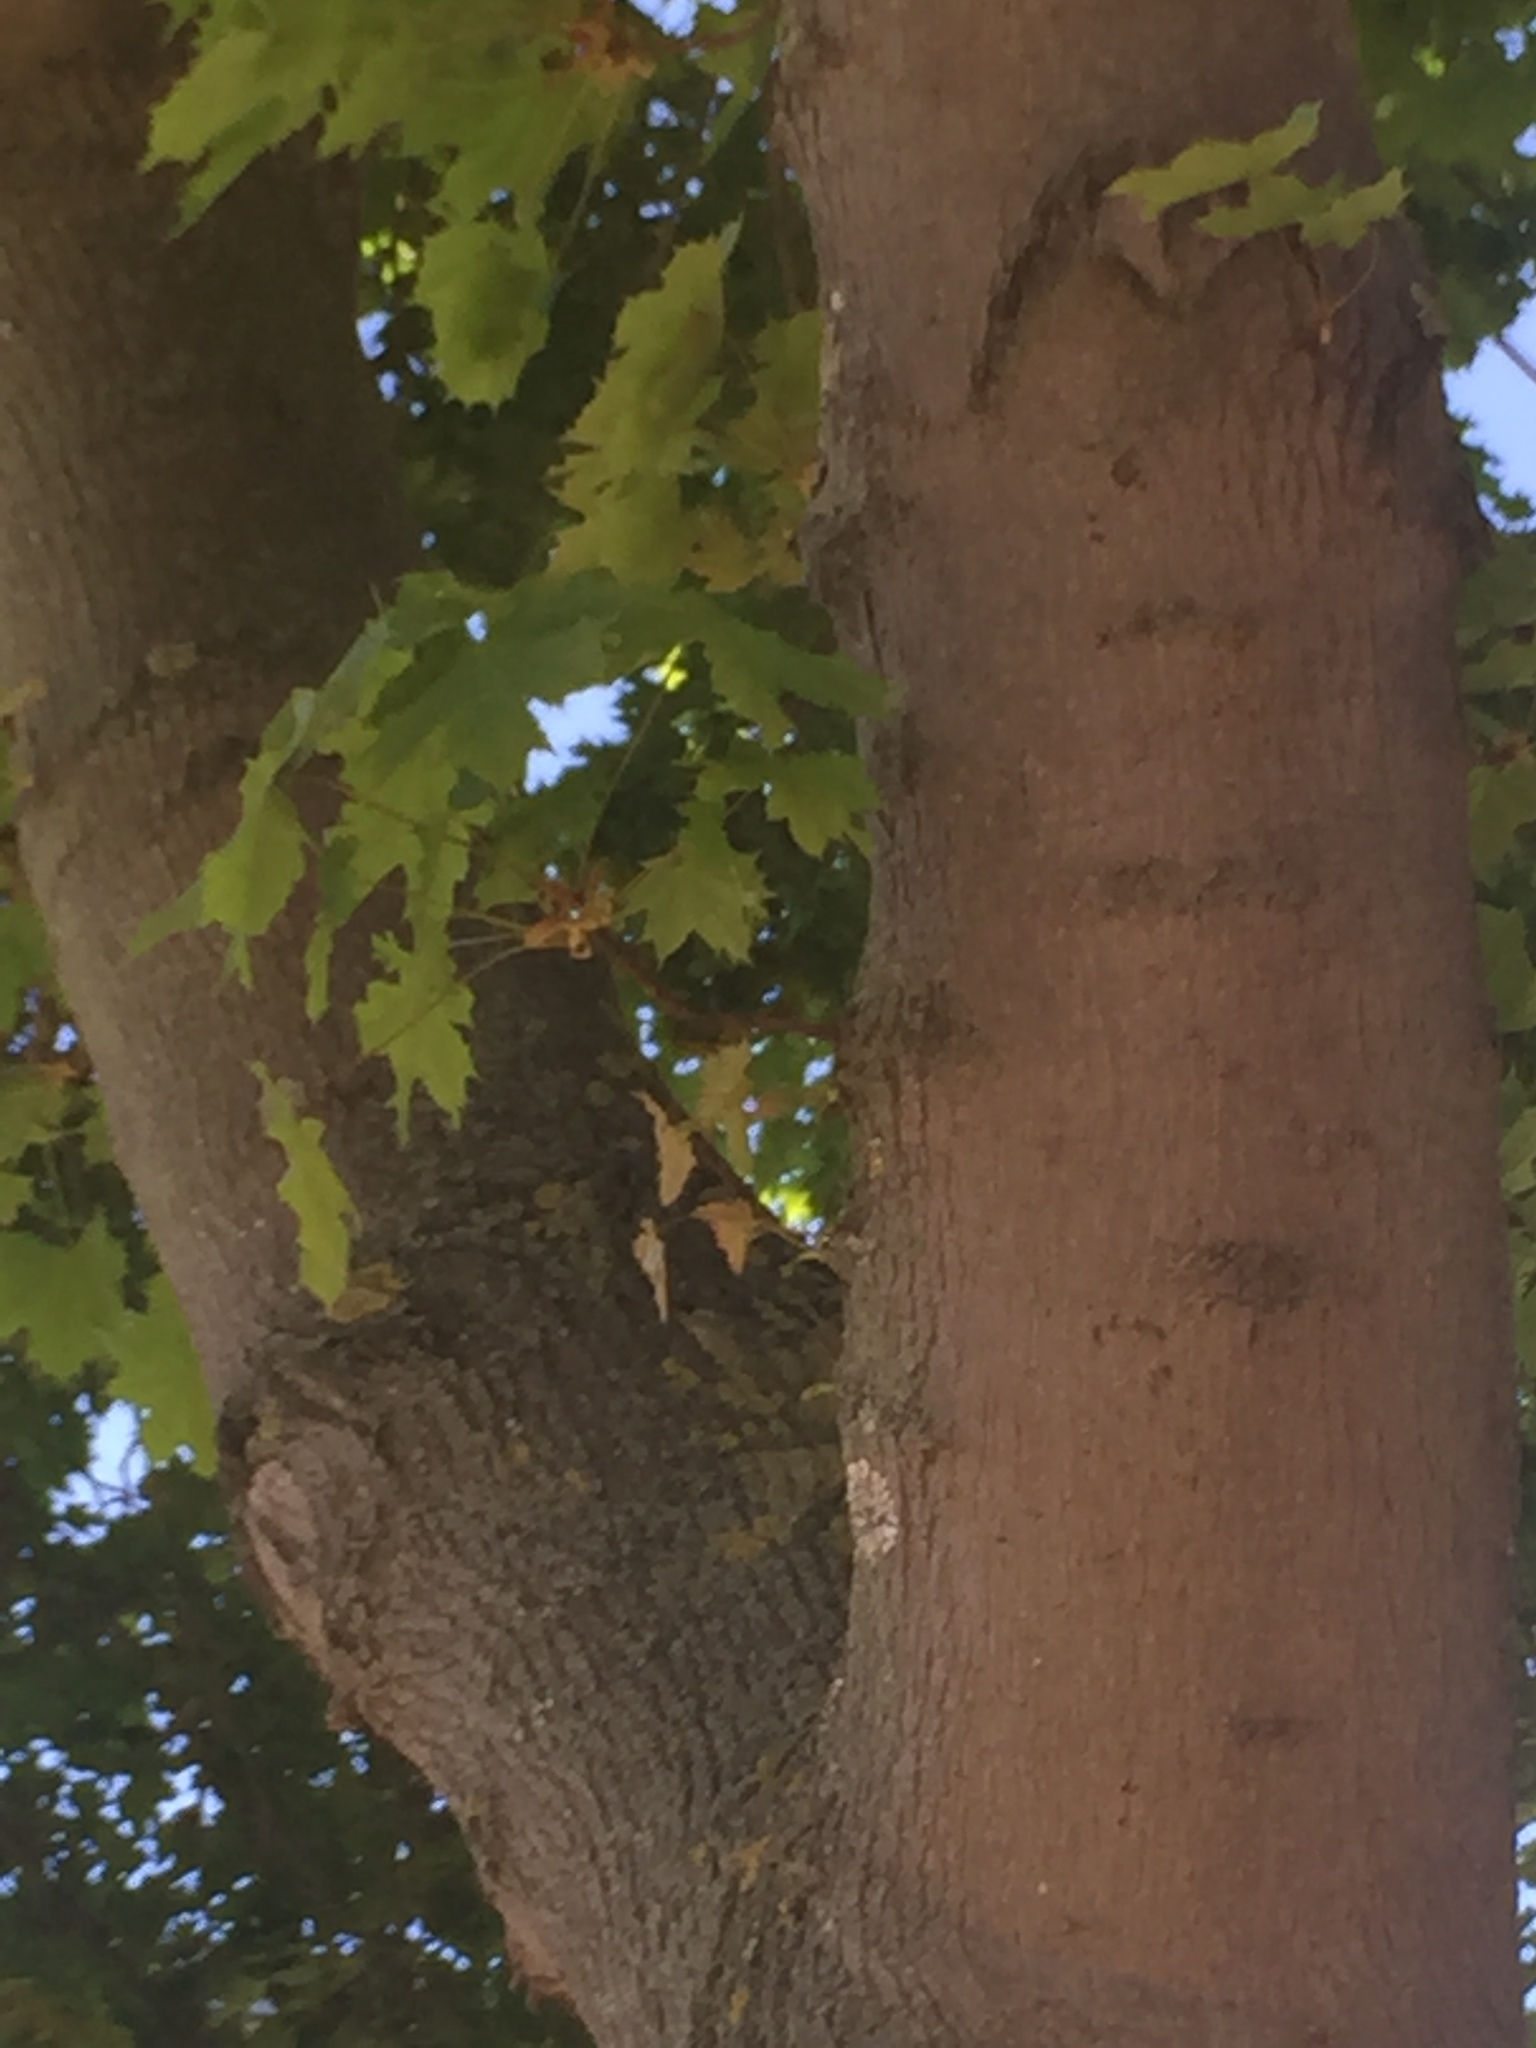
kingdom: Plantae
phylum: Tracheophyta
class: Magnoliopsida
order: Sapindales
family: Sapindaceae
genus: Acer
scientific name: Acer platanoides
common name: Norway maple
